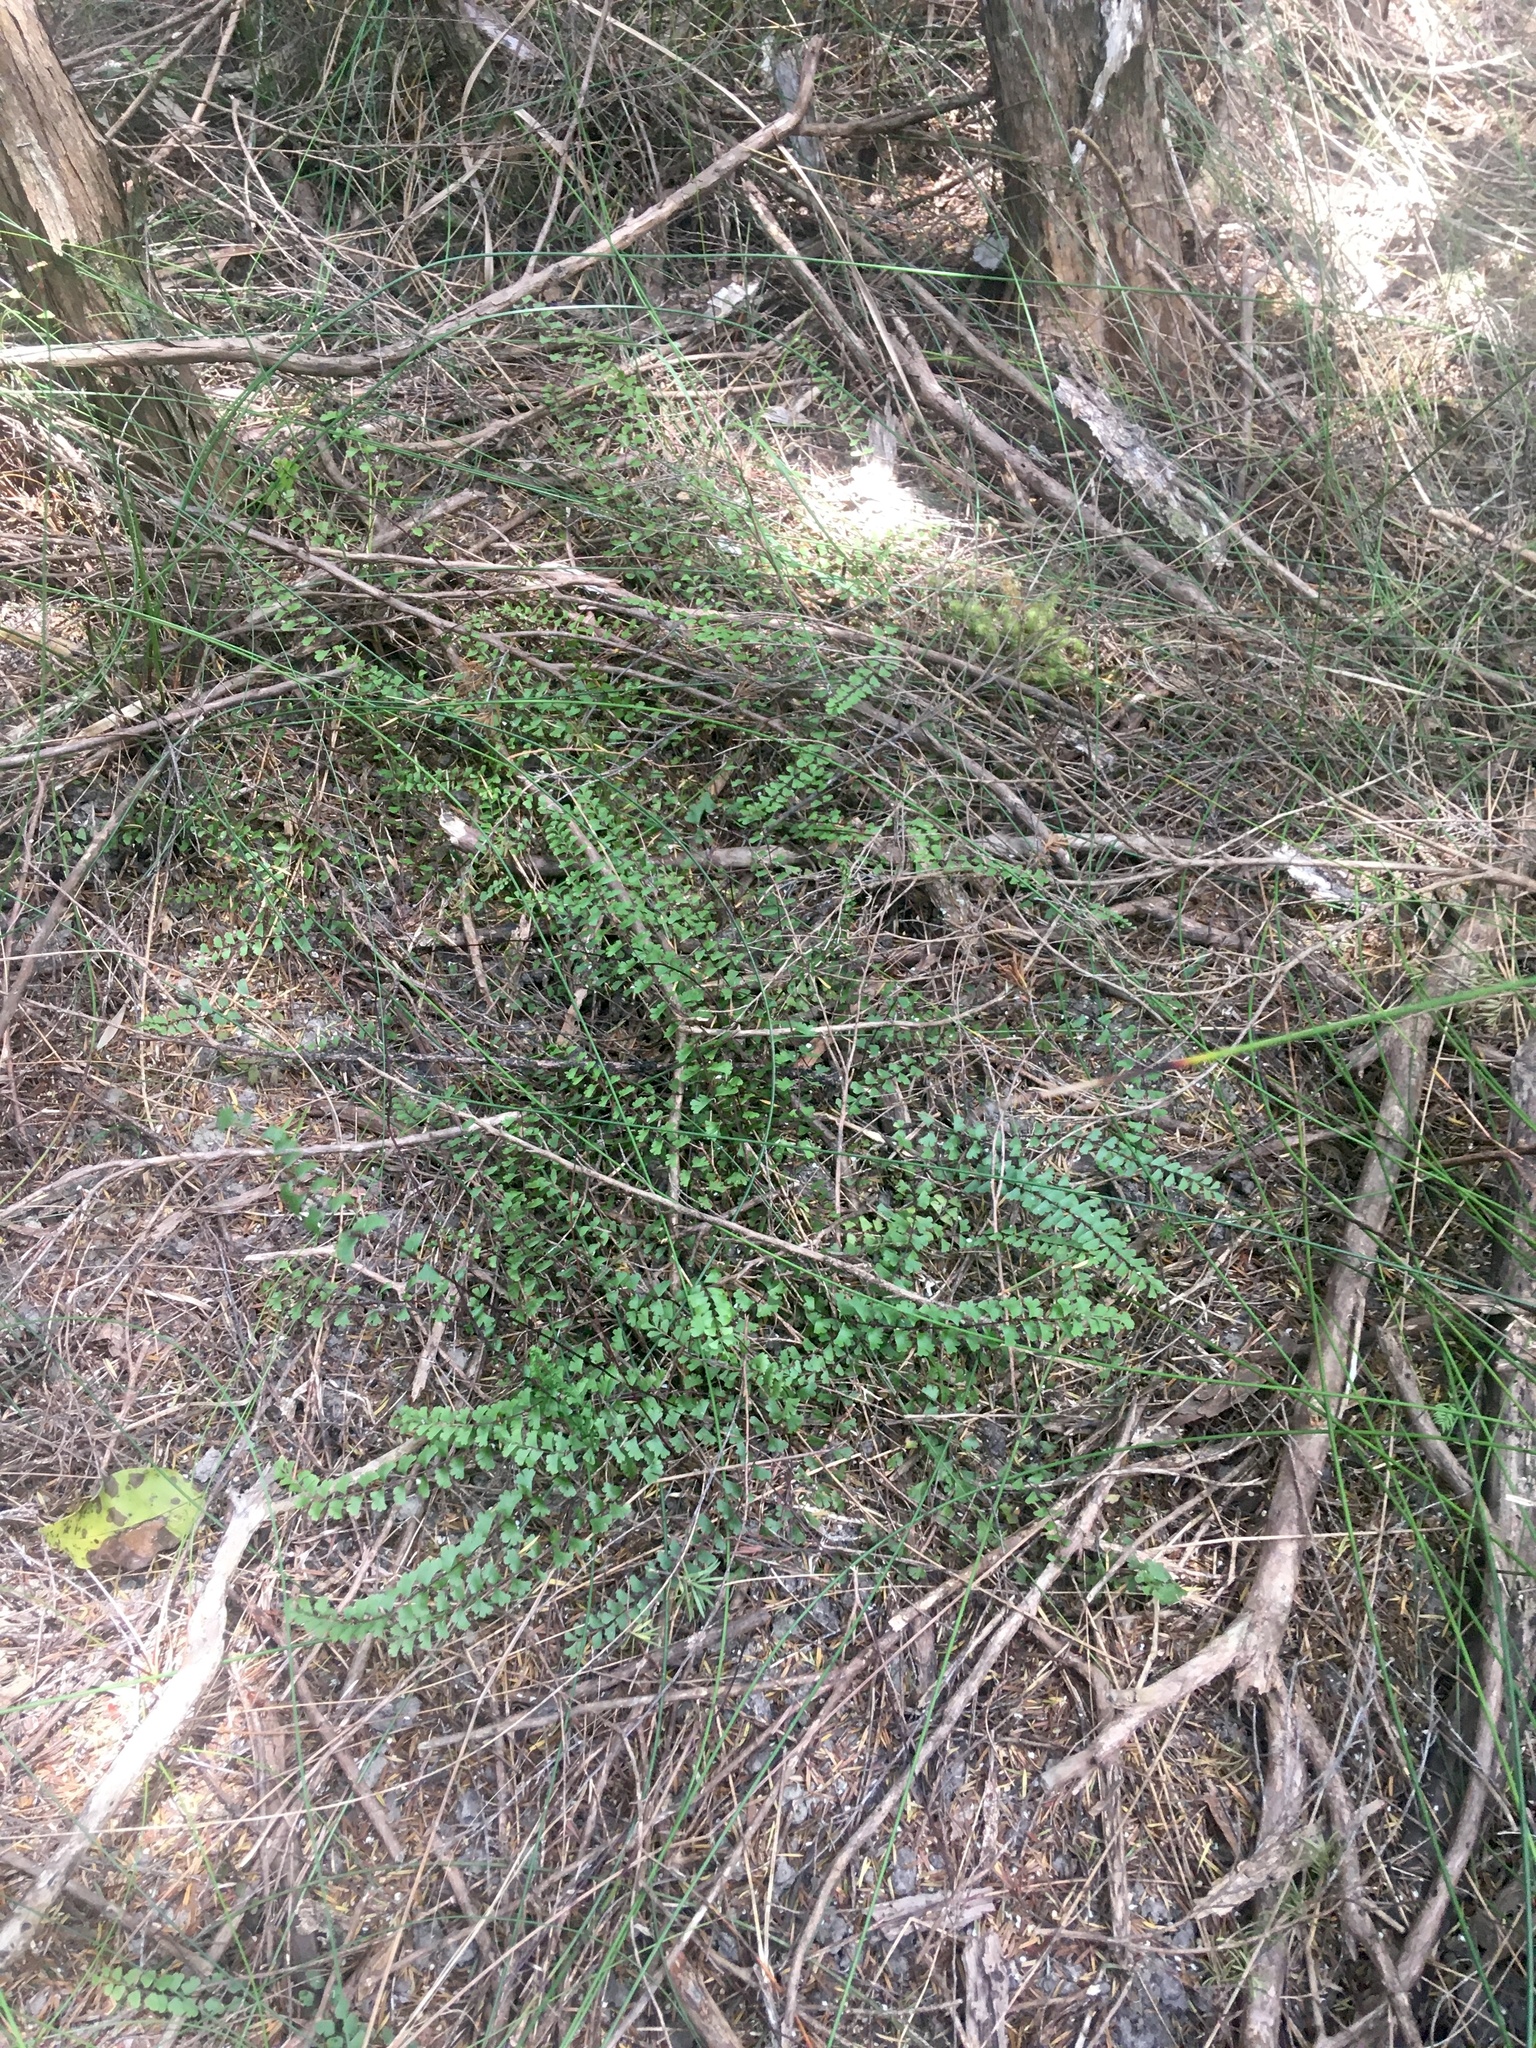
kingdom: Plantae
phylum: Tracheophyta
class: Polypodiopsida
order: Polypodiales
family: Lindsaeaceae
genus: Lindsaea
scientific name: Lindsaea linearis
